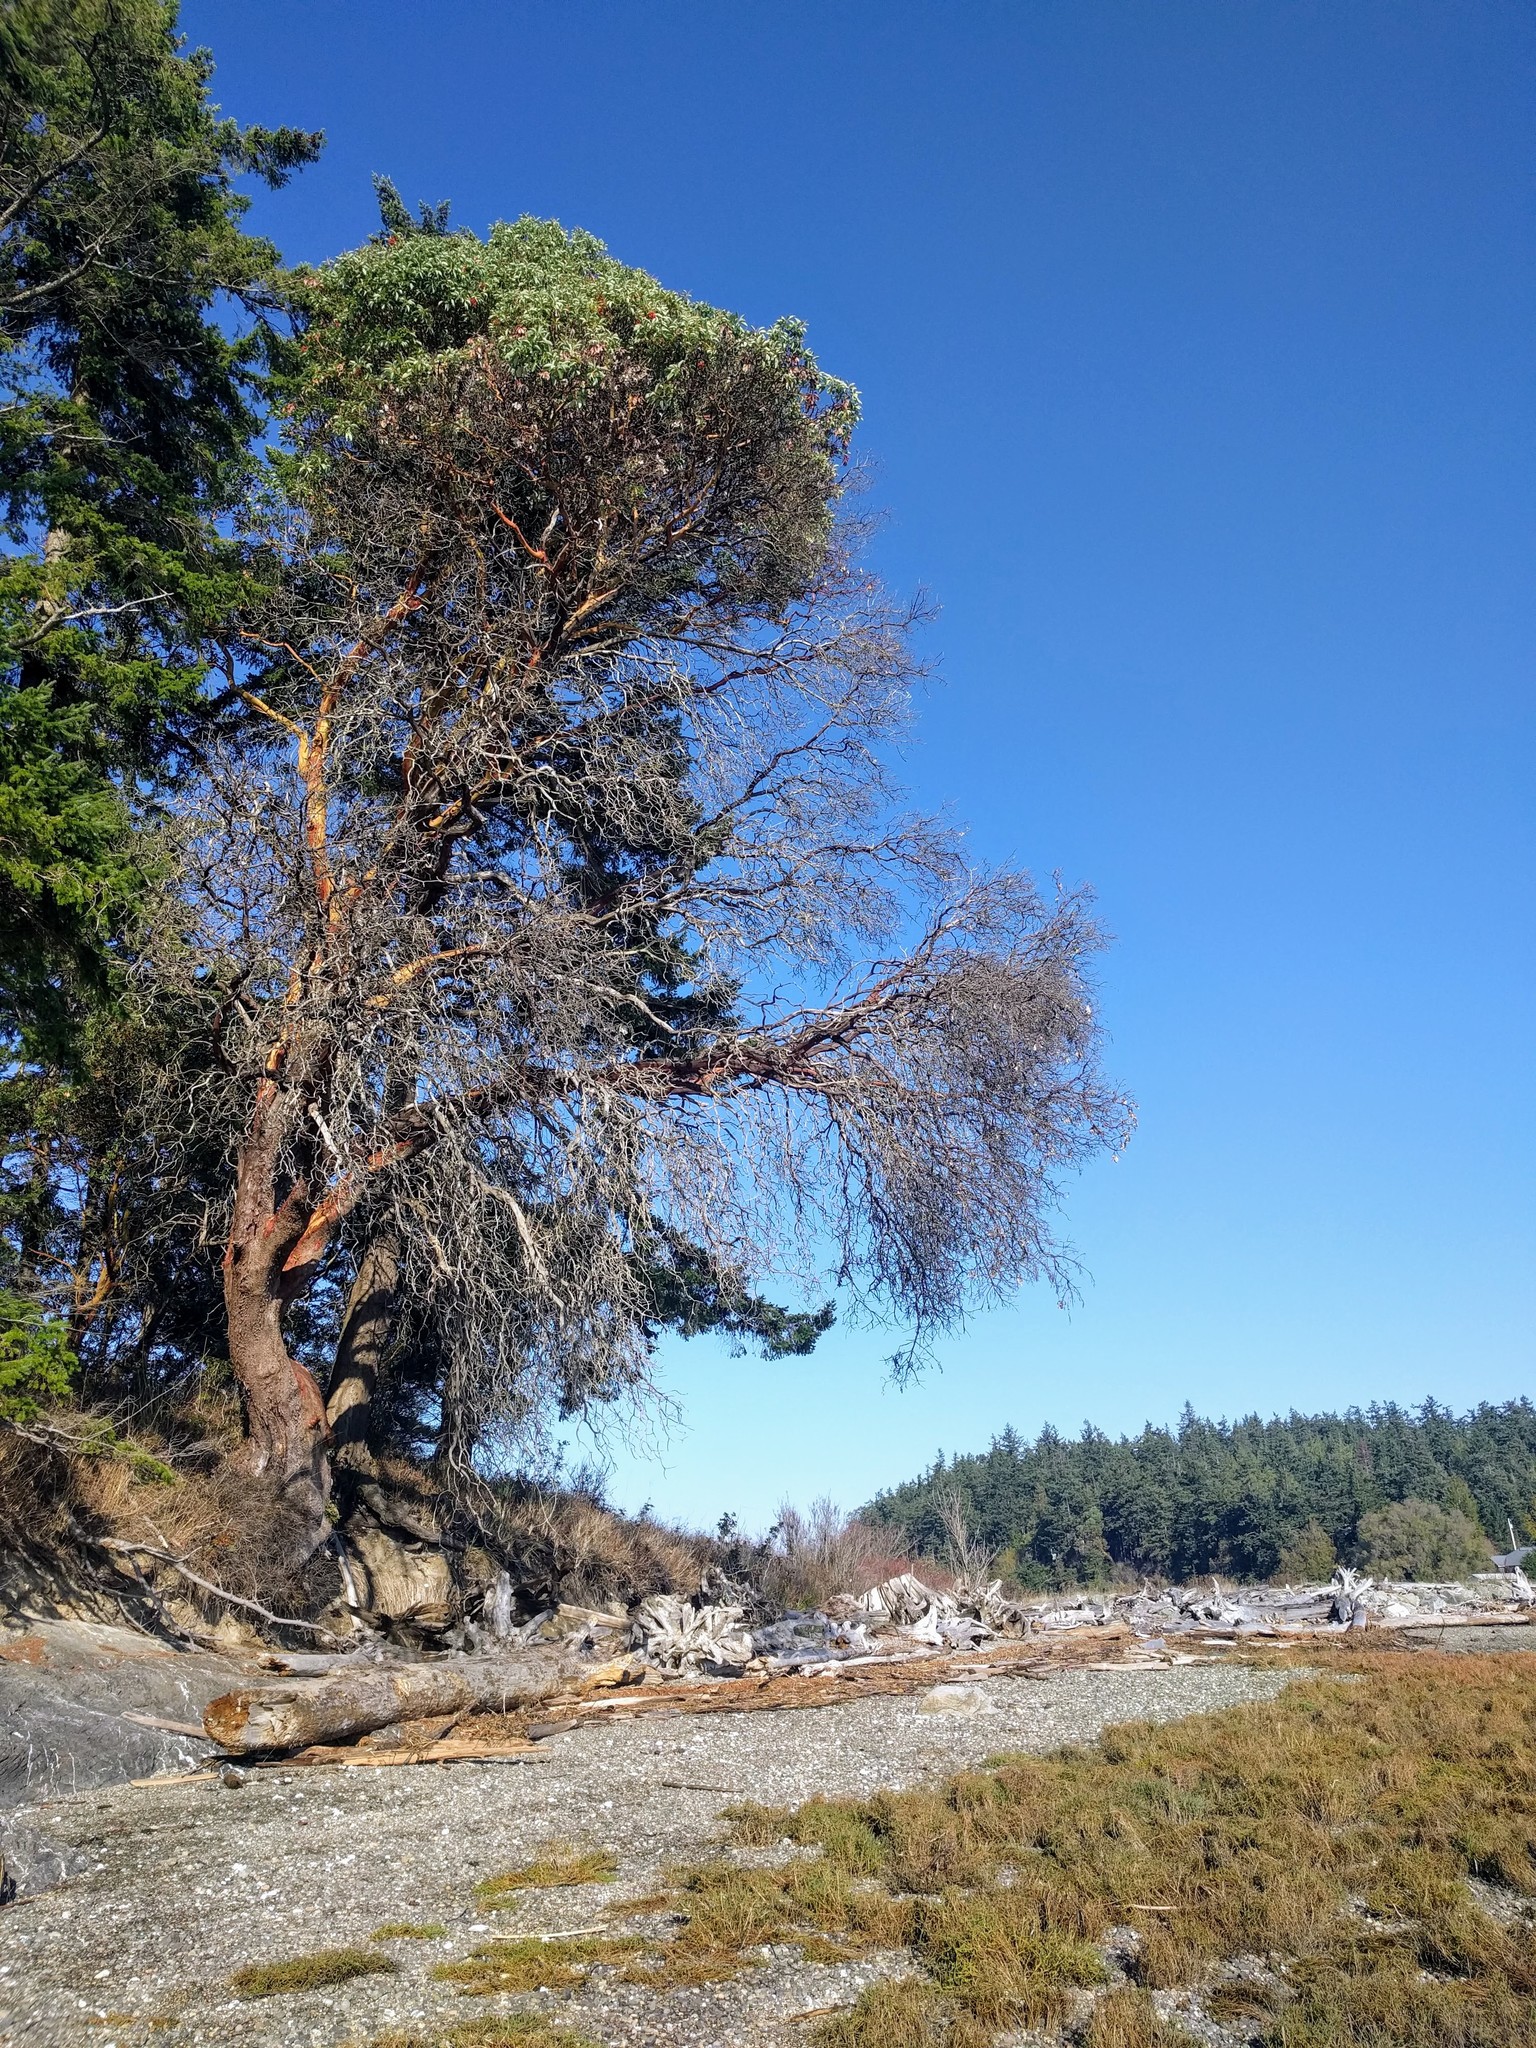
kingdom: Plantae
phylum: Tracheophyta
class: Magnoliopsida
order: Ericales
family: Ericaceae
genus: Arbutus
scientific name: Arbutus menziesii
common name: Pacific madrone
